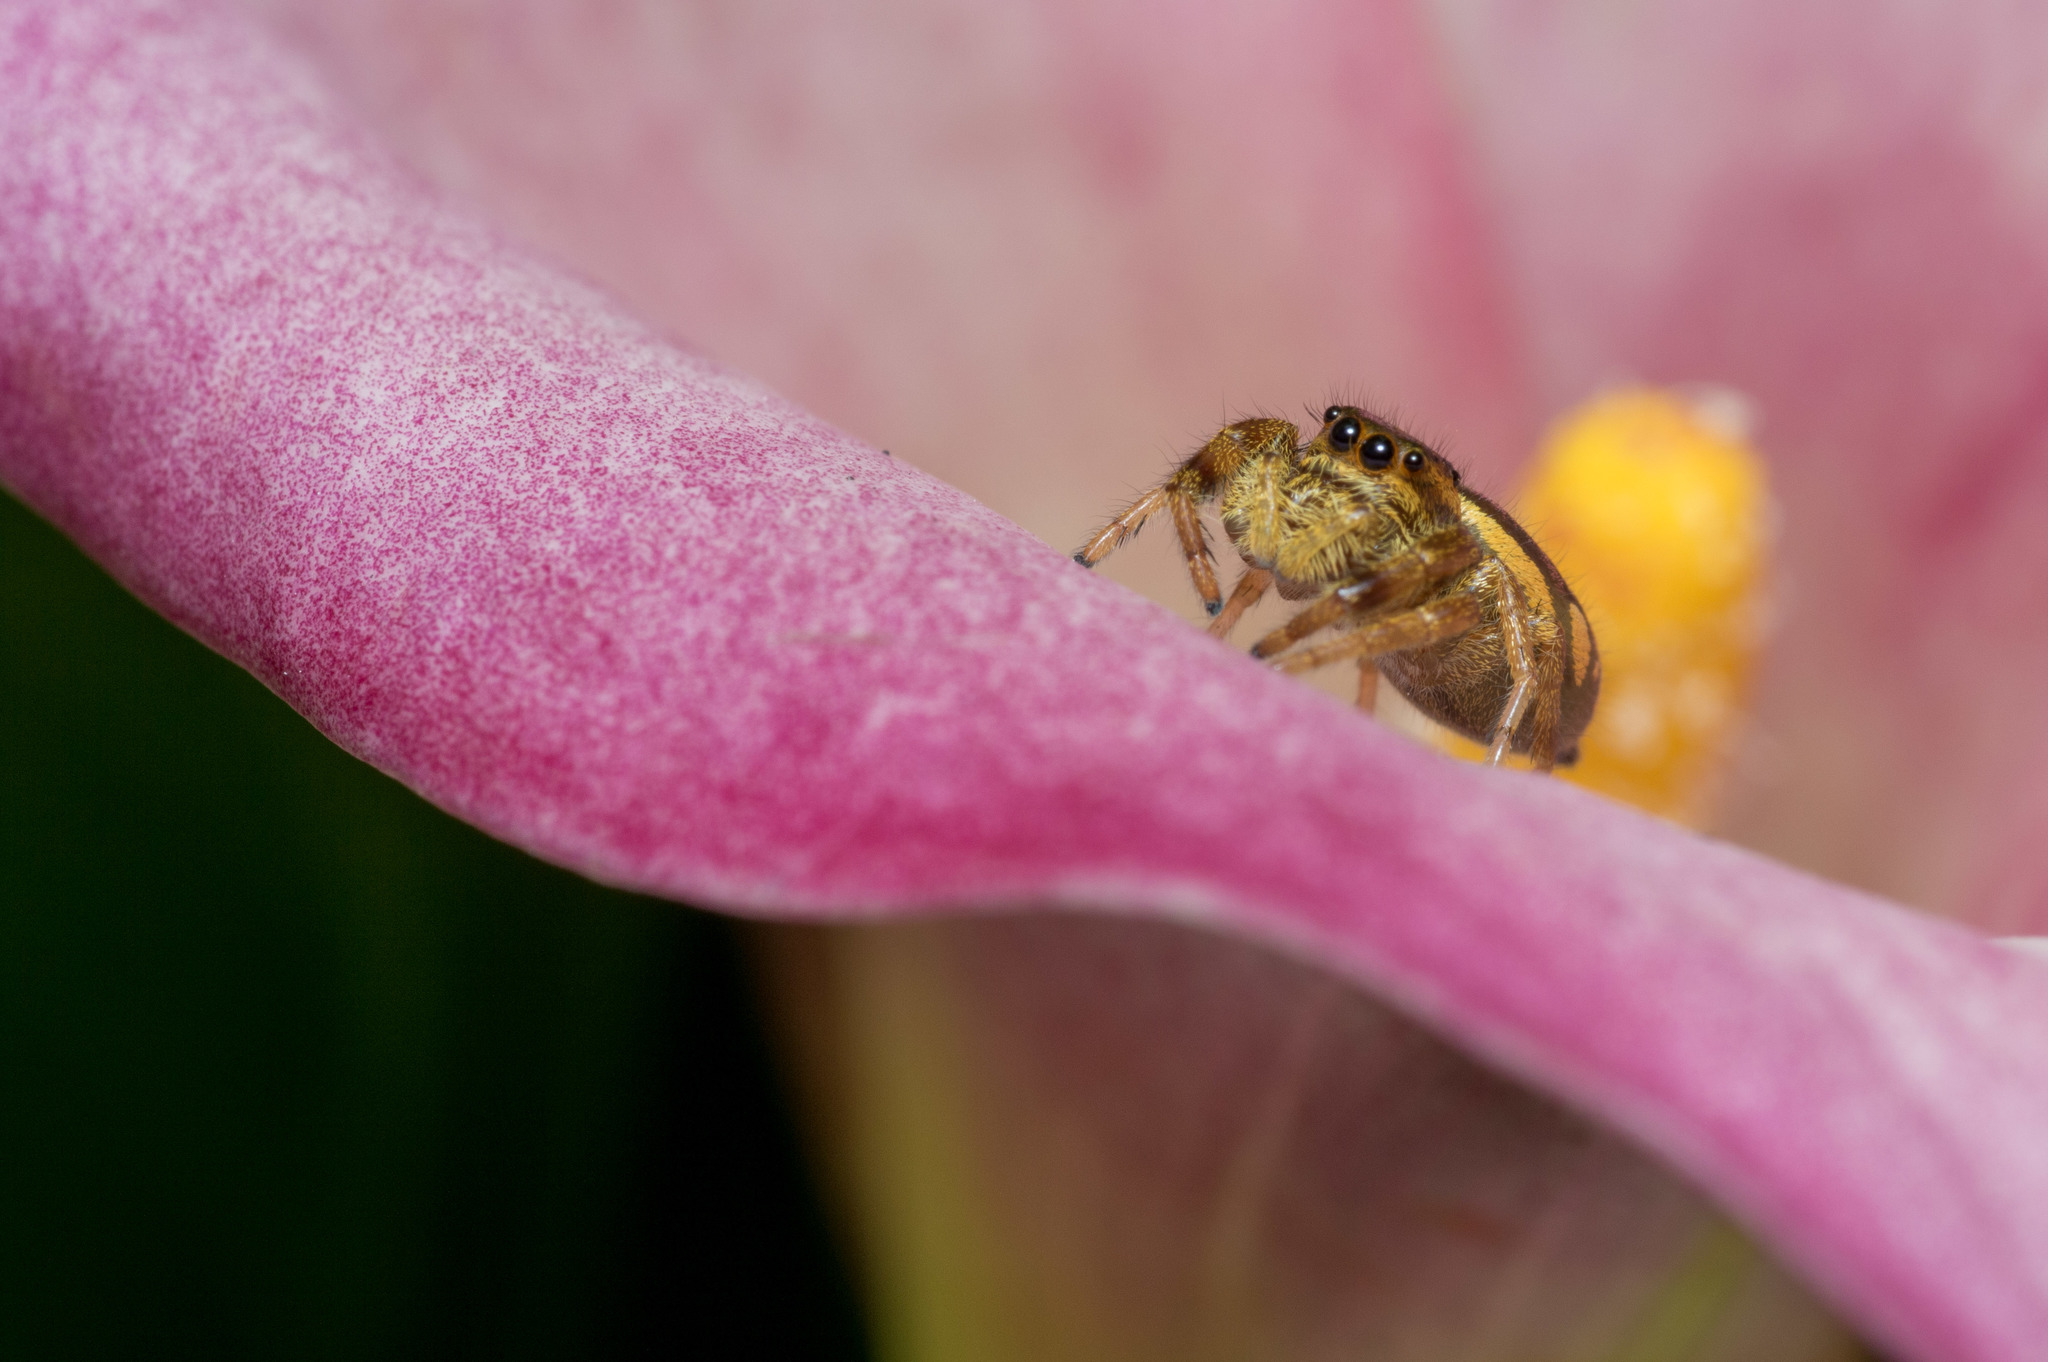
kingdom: Animalia
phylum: Arthropoda
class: Arachnida
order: Araneae
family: Salticidae
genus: Paraphidippus
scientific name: Paraphidippus aurantius
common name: Jumping spiders
